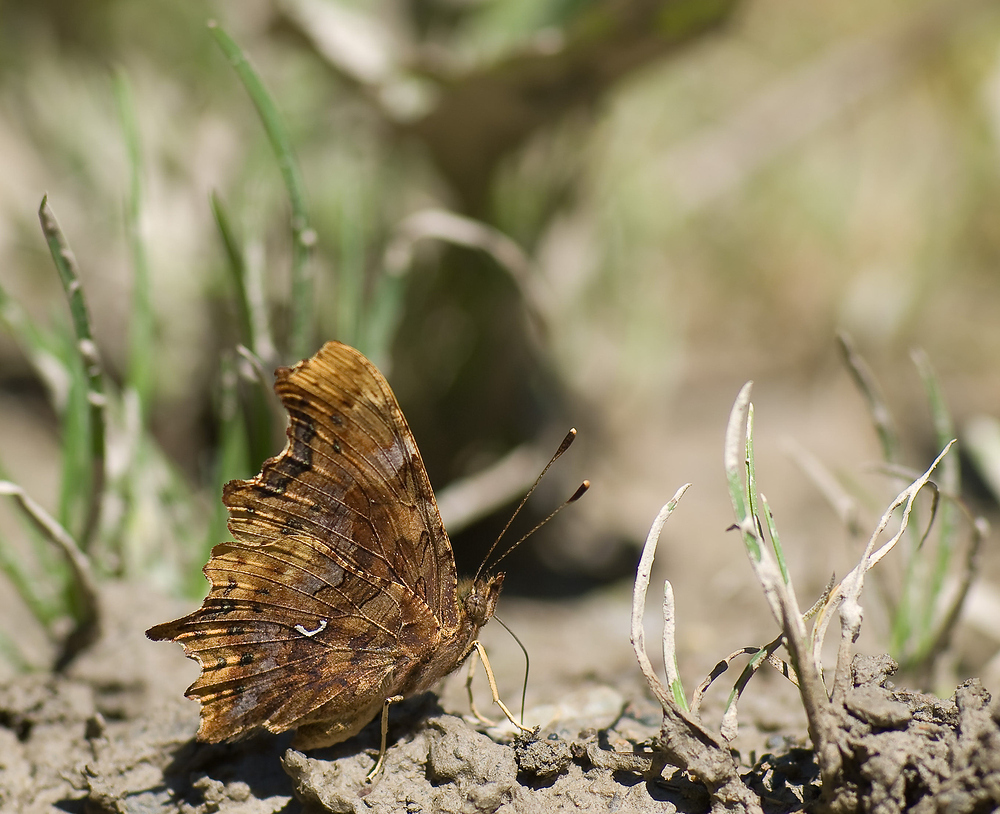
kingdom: Animalia
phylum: Arthropoda
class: Insecta
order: Lepidoptera
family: Nymphalidae
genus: Polygonia
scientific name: Polygonia c-album
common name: Comma
